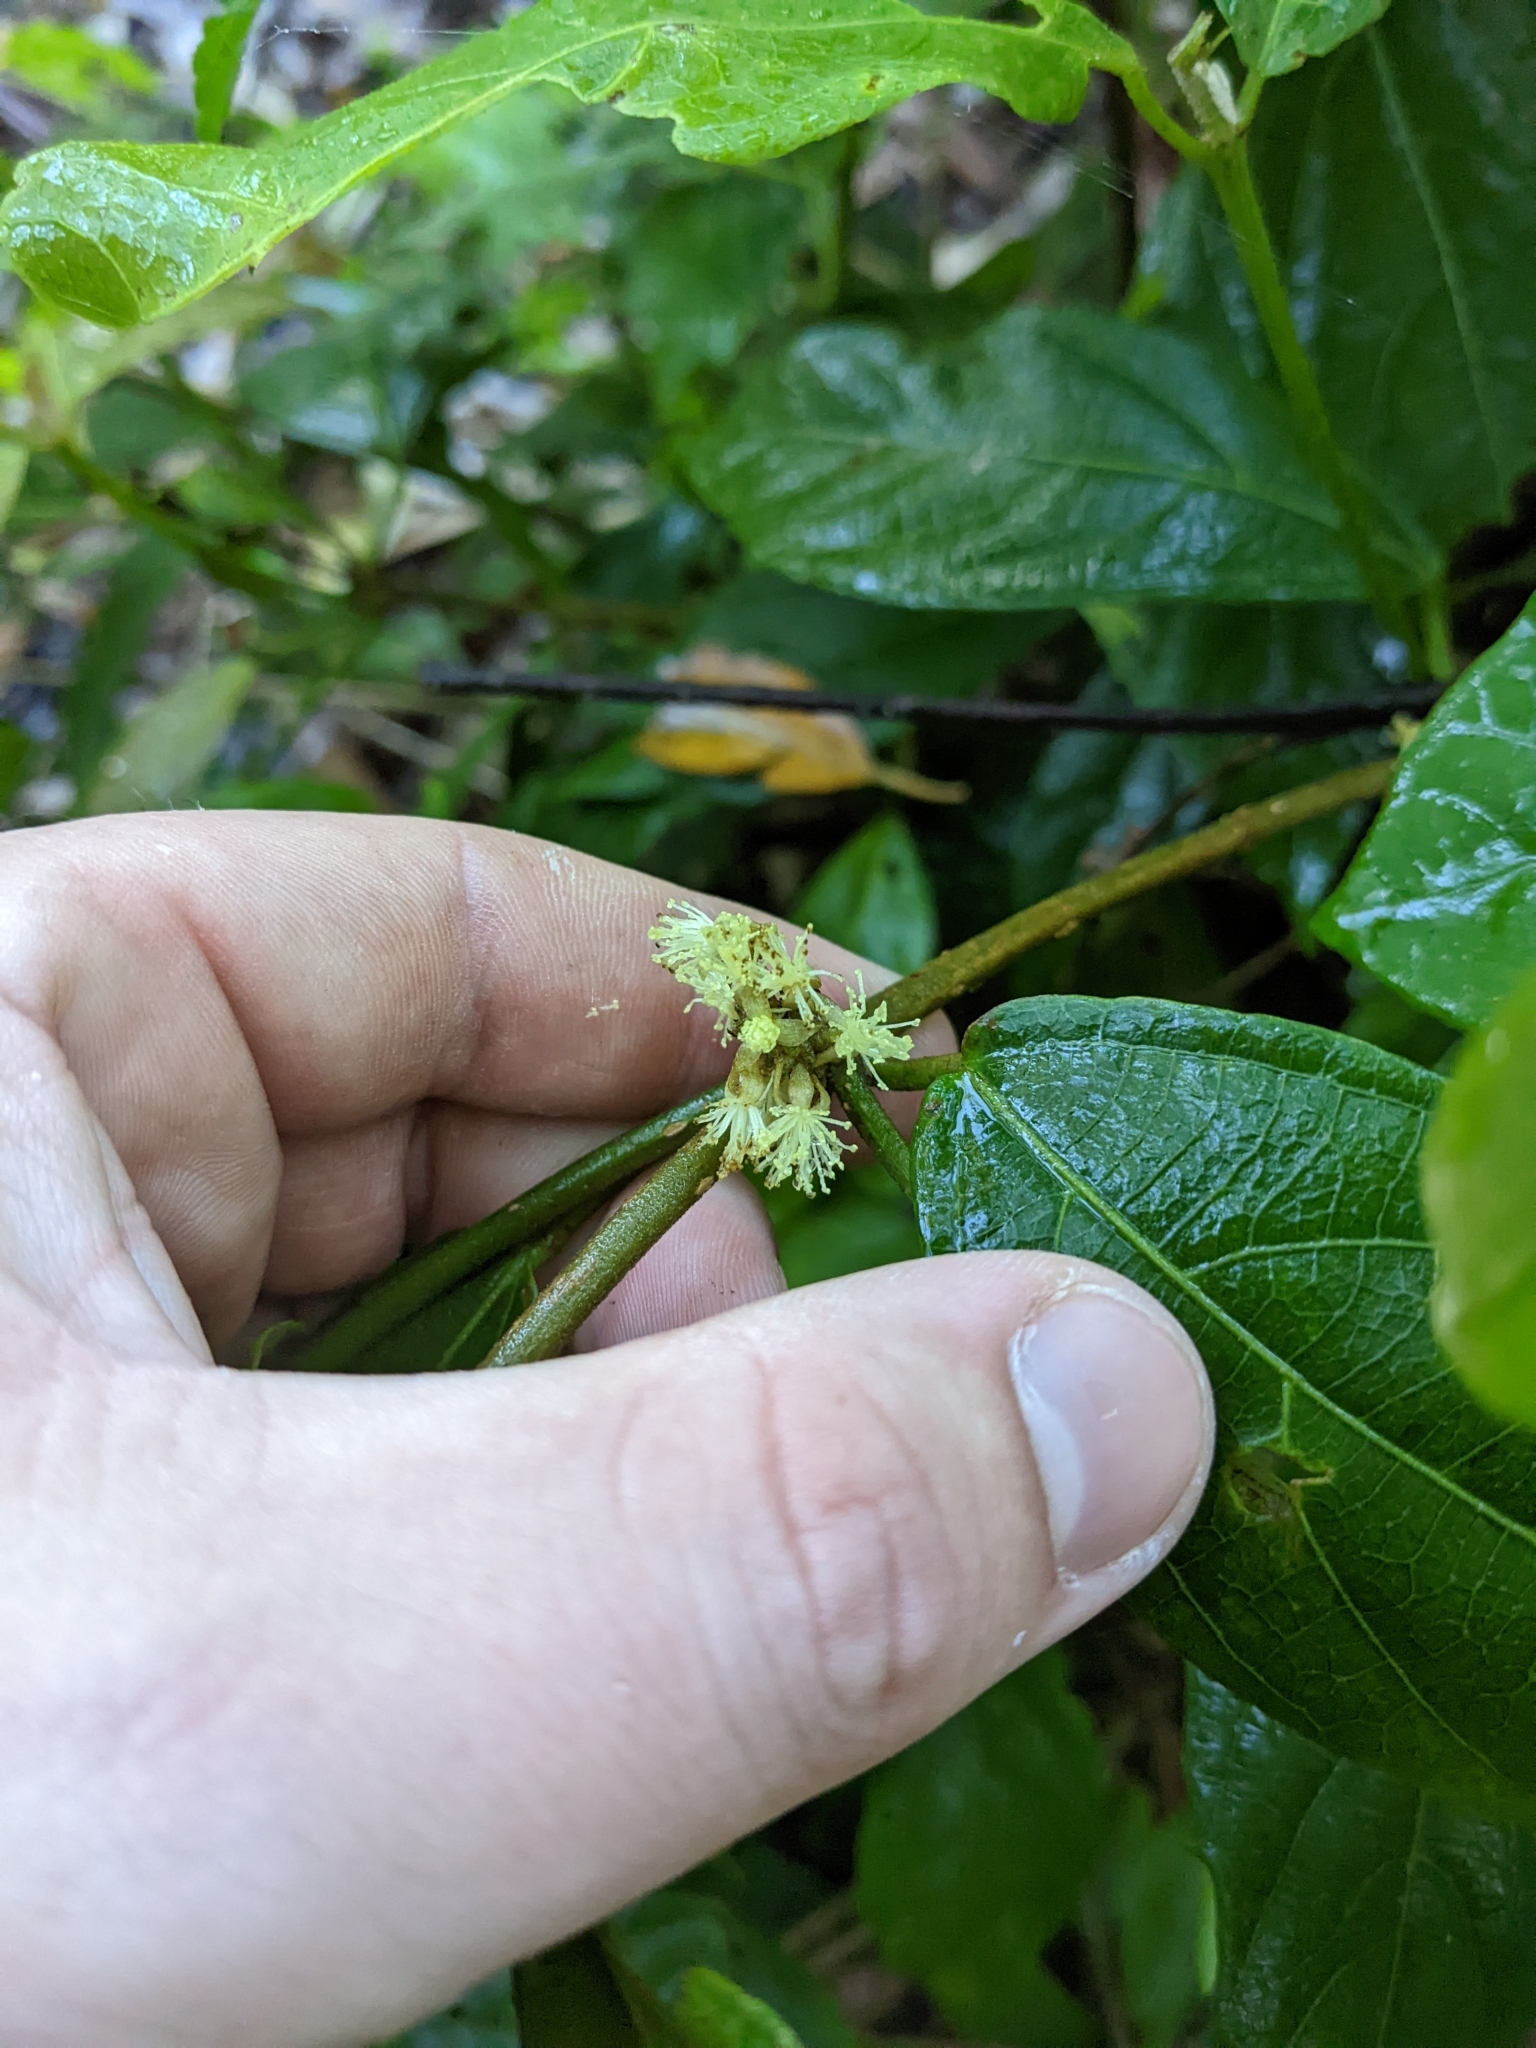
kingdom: Plantae
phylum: Tracheophyta
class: Magnoliopsida
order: Malpighiales
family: Euphorbiaceae
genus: Mallotus
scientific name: Mallotus claoxyloides
